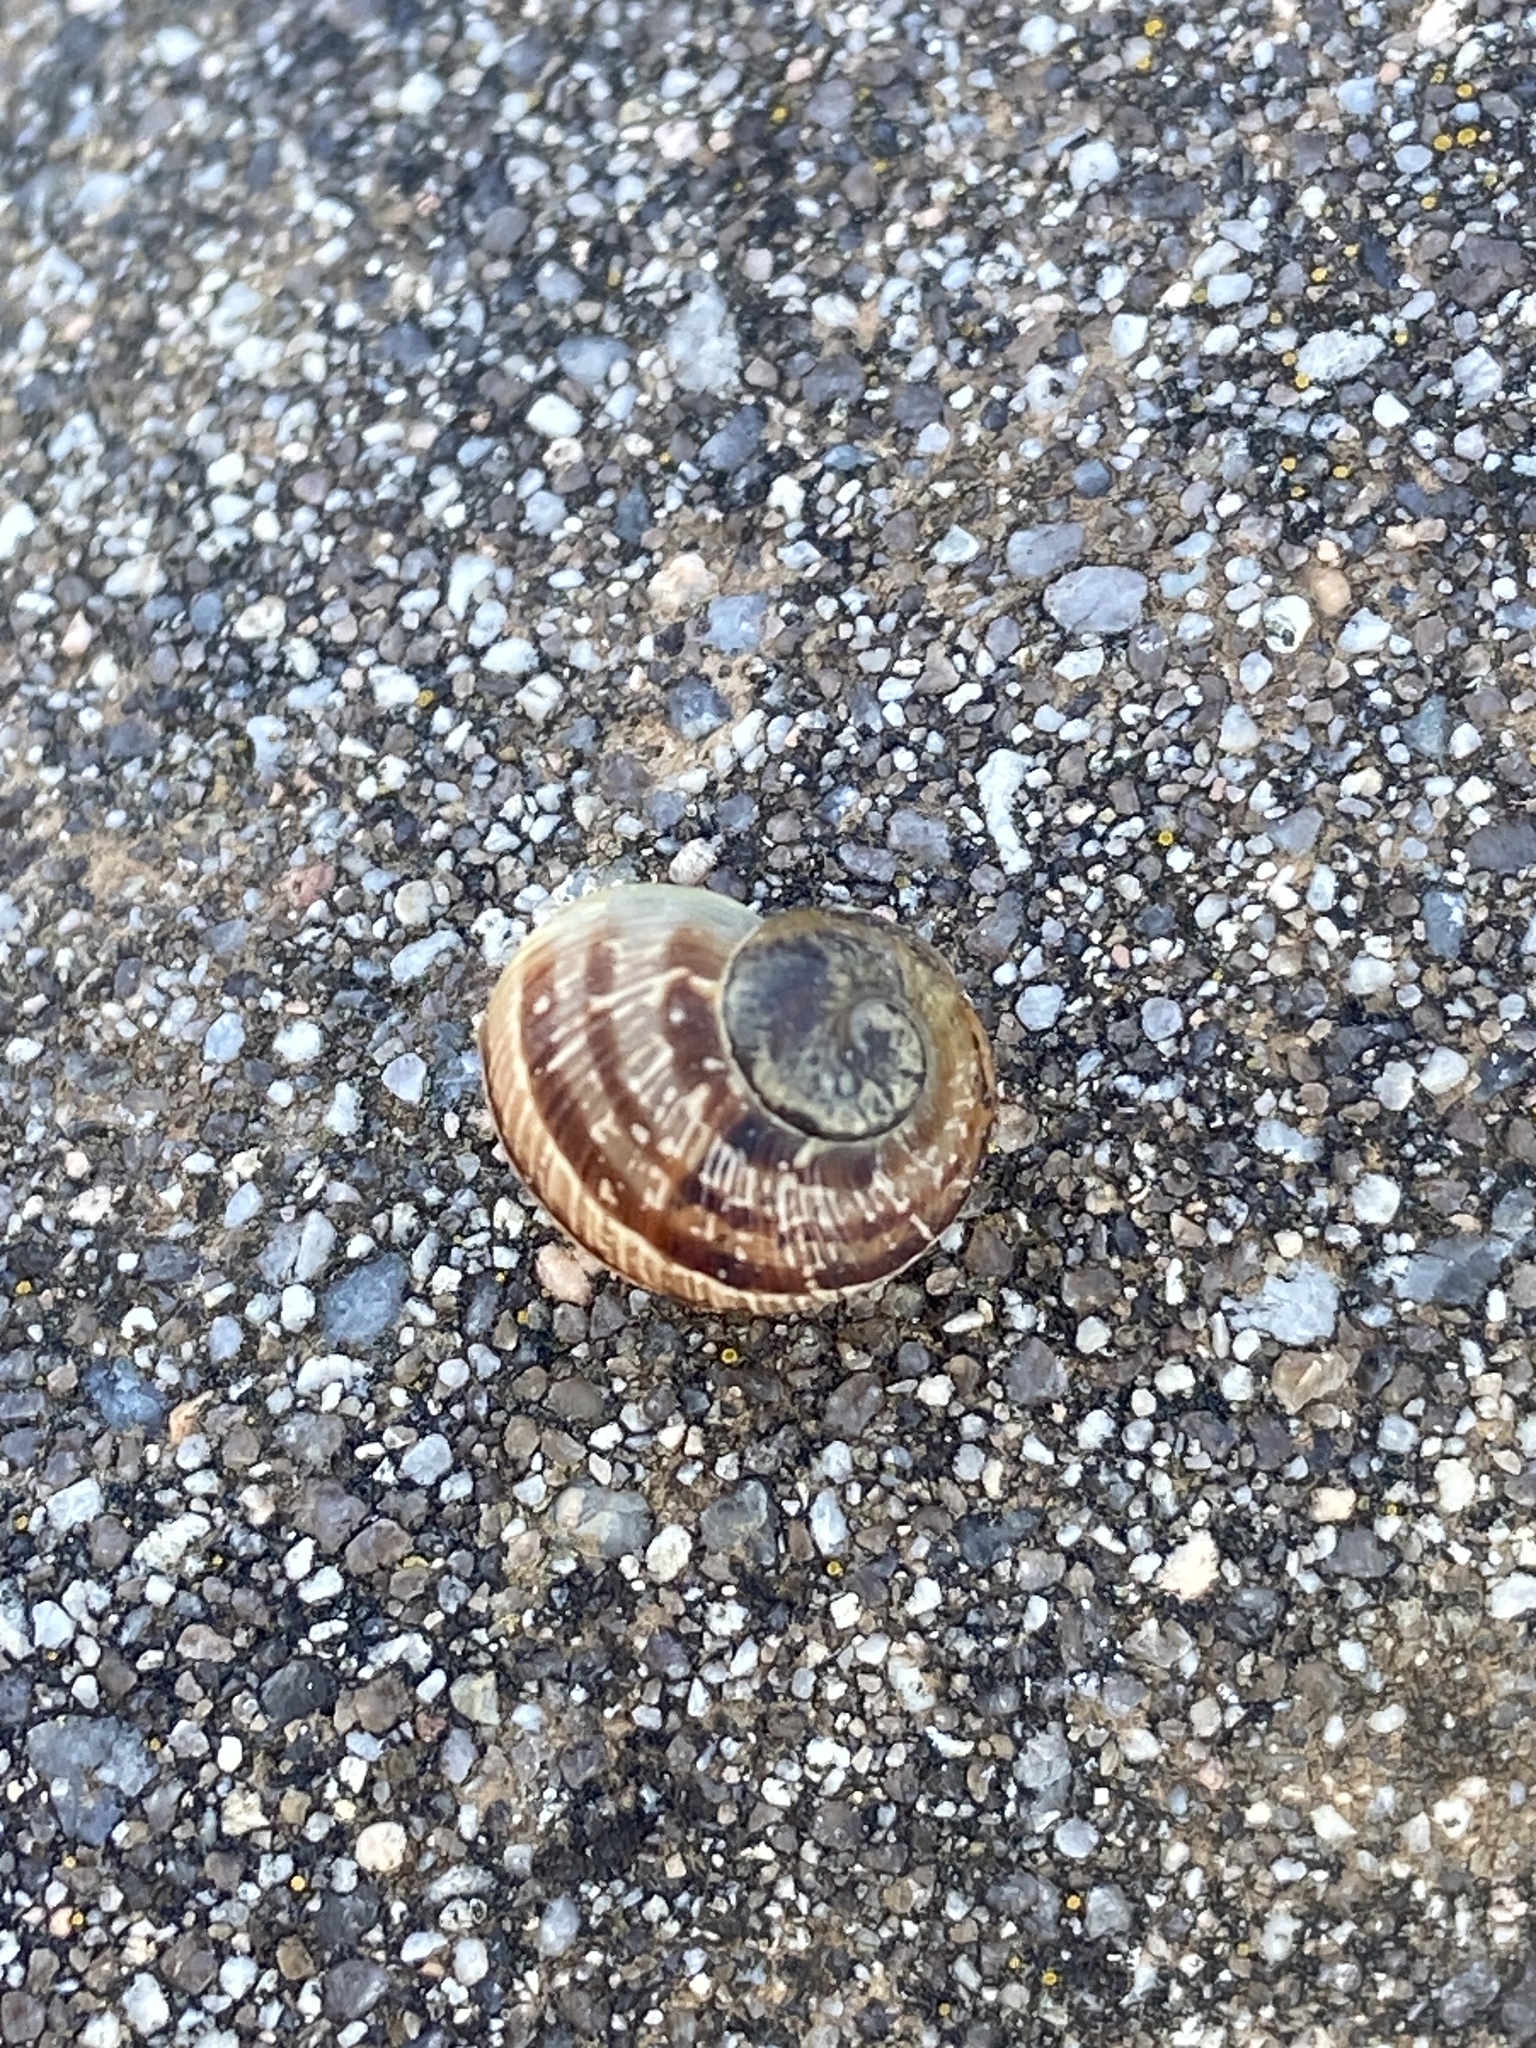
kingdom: Animalia
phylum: Mollusca
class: Gastropoda
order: Stylommatophora
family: Helicidae
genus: Cornu
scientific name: Cornu aspersum
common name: Brown garden snail
